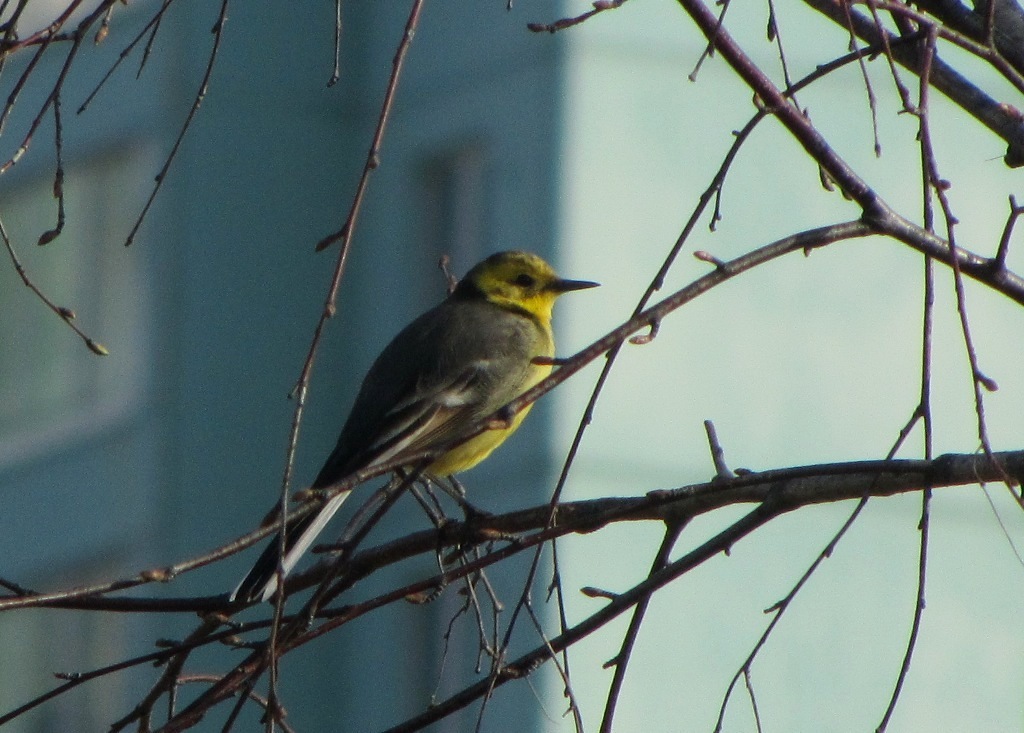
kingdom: Animalia
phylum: Chordata
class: Aves
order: Passeriformes
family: Motacillidae
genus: Motacilla
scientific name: Motacilla citreola
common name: Citrine wagtail
